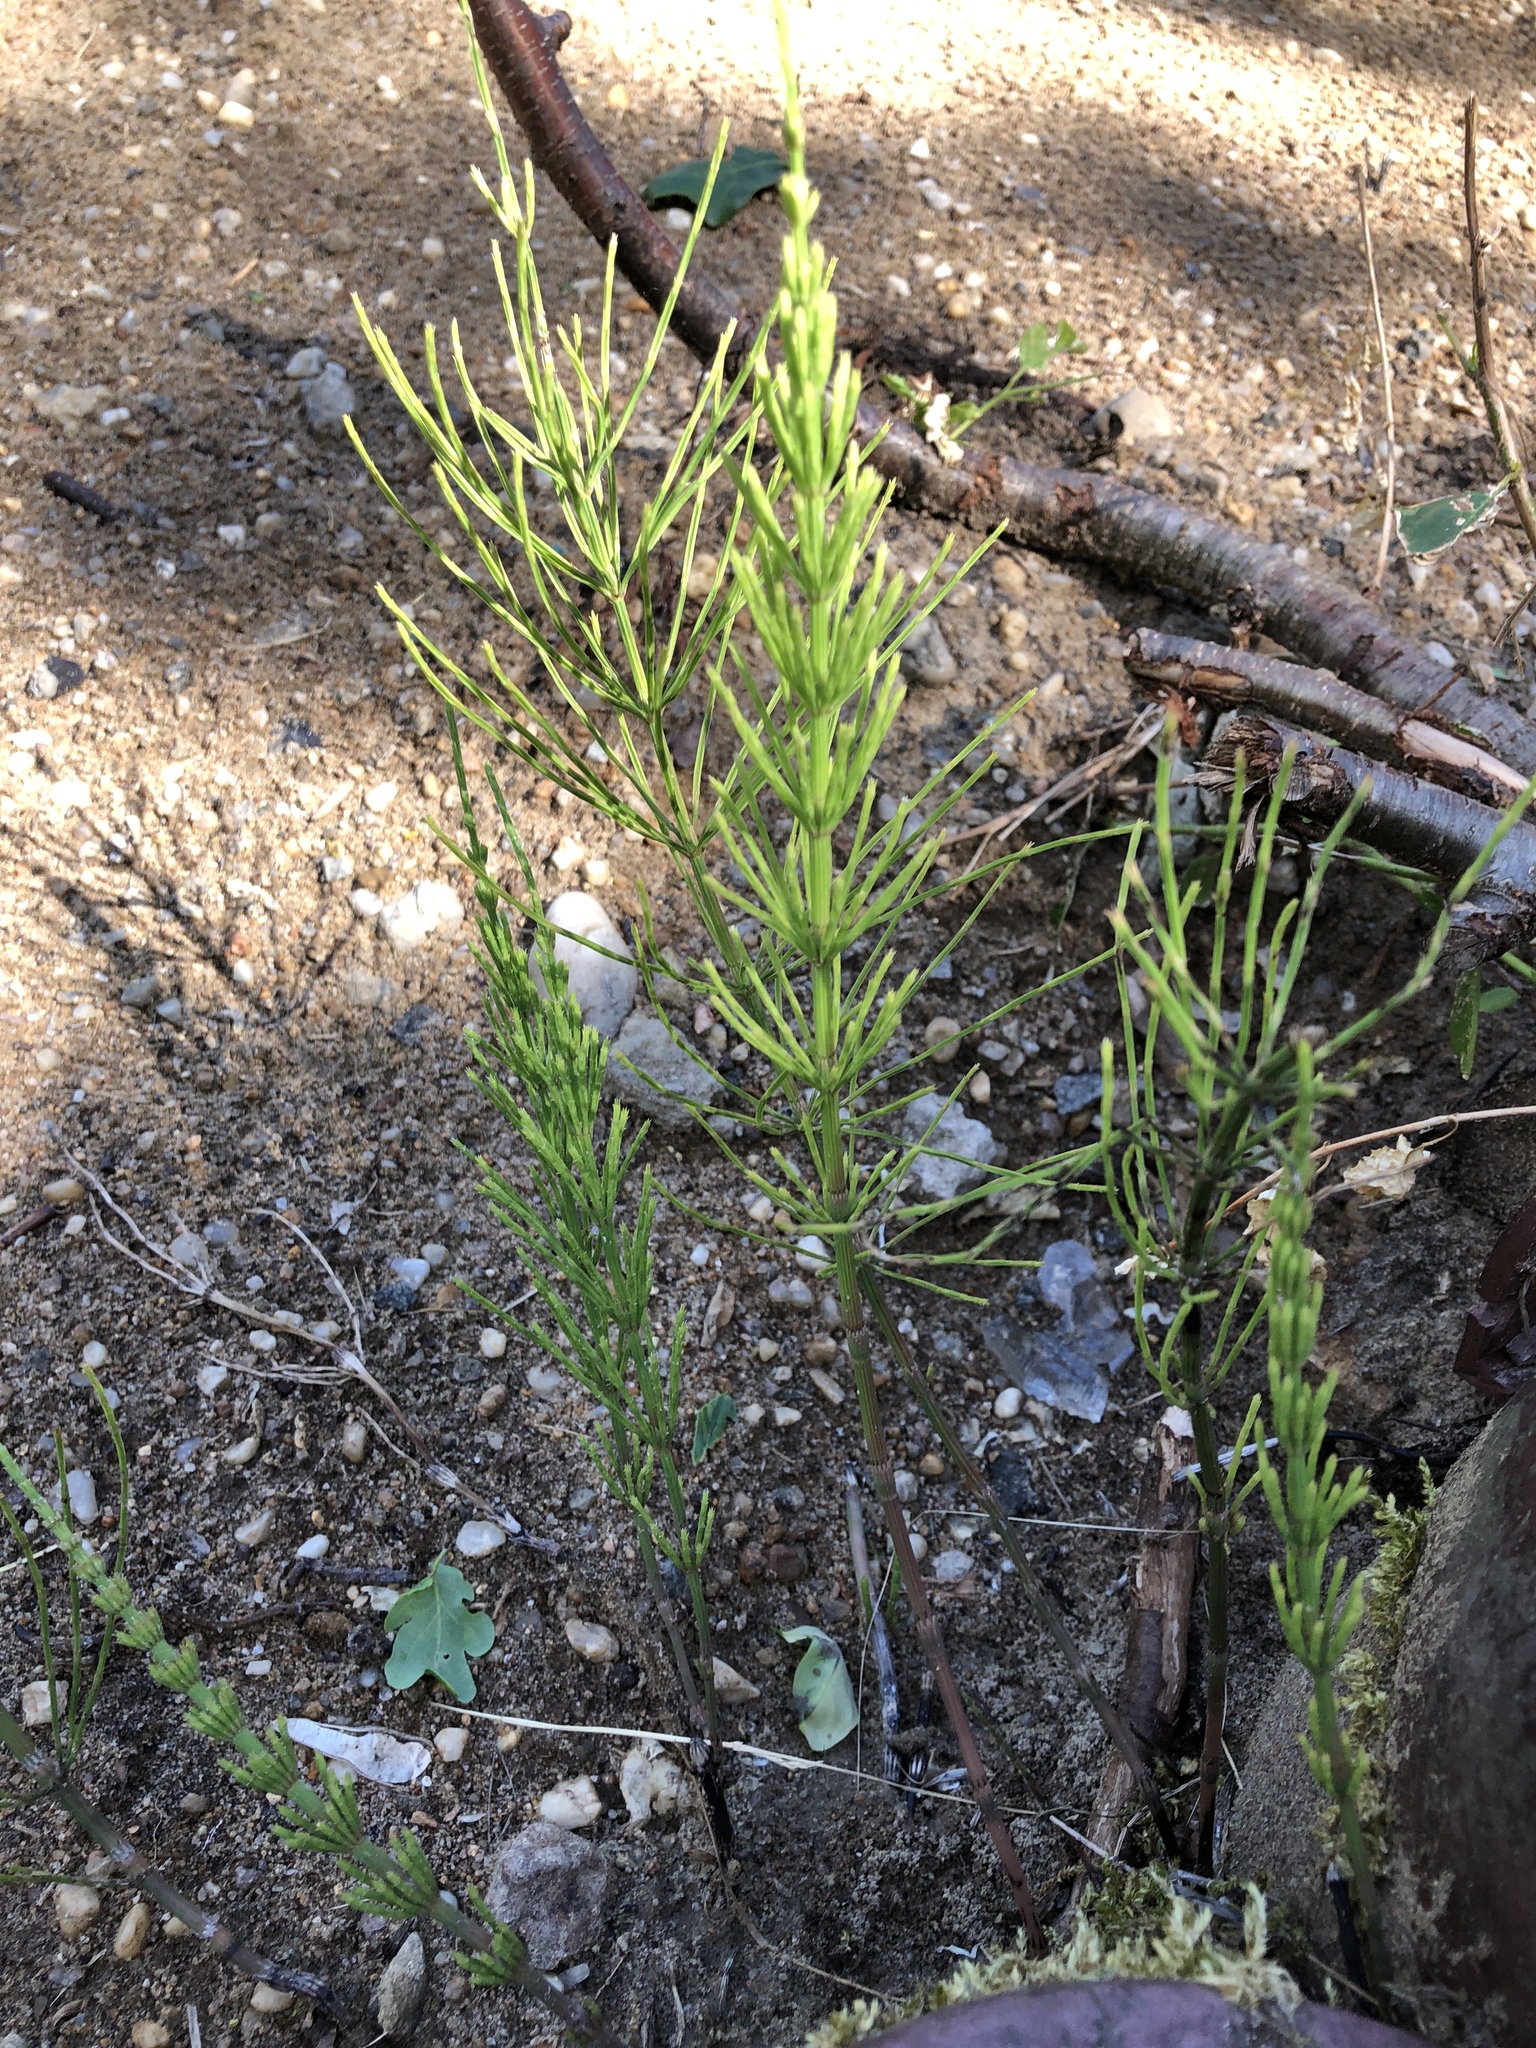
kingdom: Plantae
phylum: Tracheophyta
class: Polypodiopsida
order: Equisetales
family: Equisetaceae
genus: Equisetum
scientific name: Equisetum arvense
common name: Field horsetail
